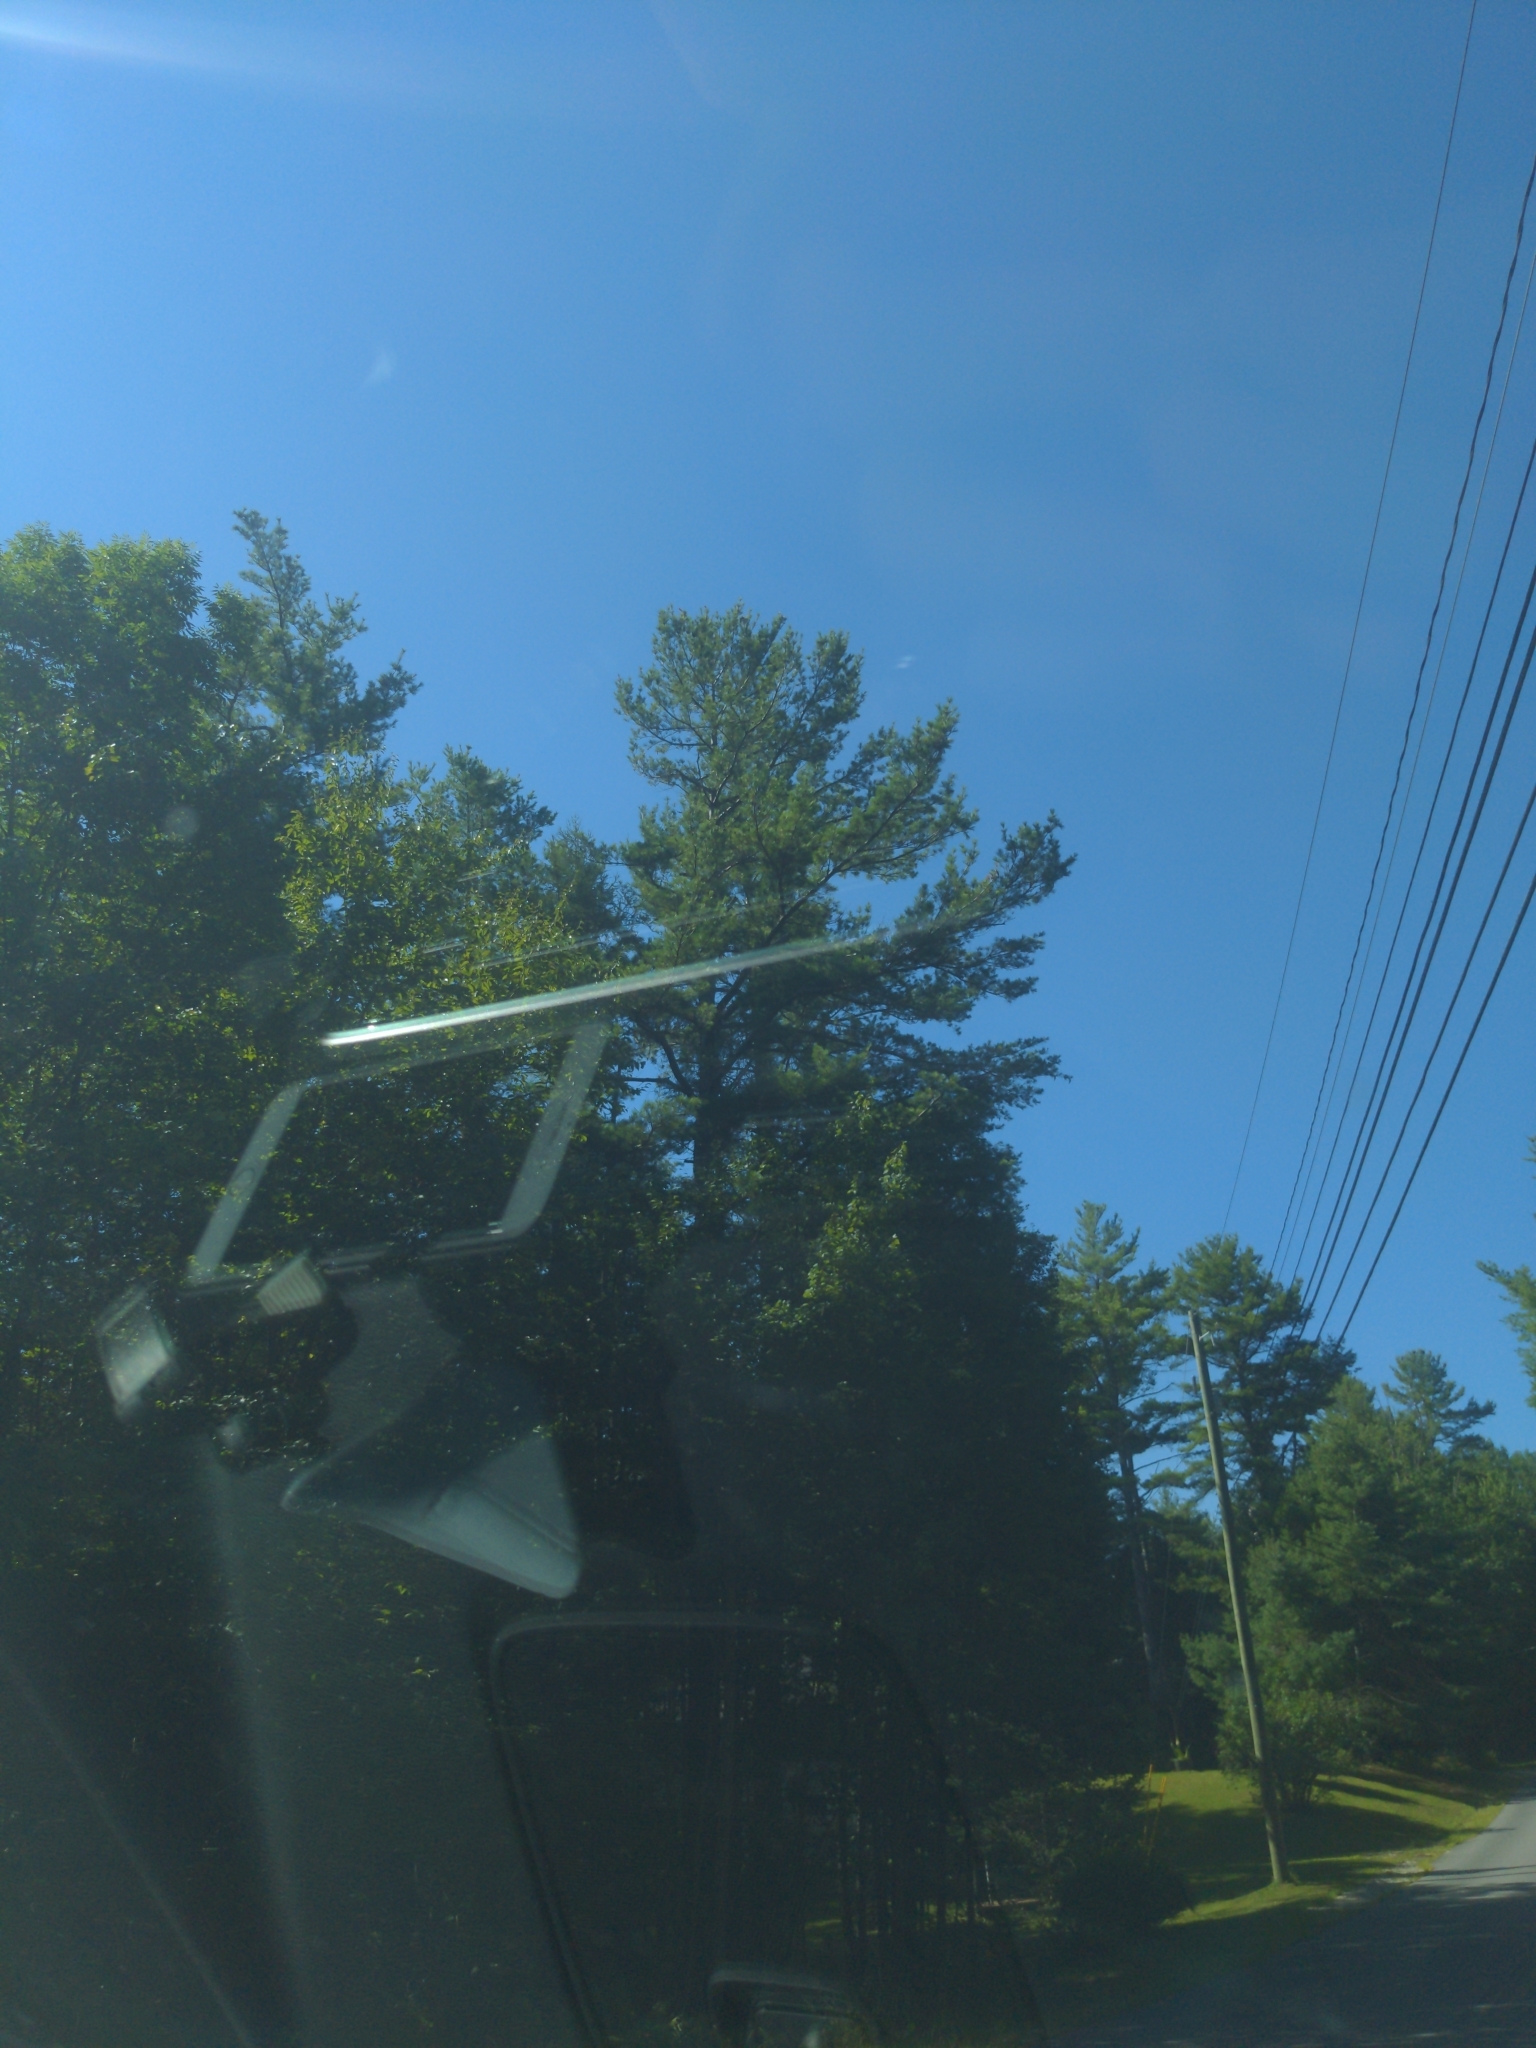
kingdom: Plantae
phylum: Tracheophyta
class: Pinopsida
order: Pinales
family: Pinaceae
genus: Pinus
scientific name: Pinus strobus
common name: Weymouth pine
